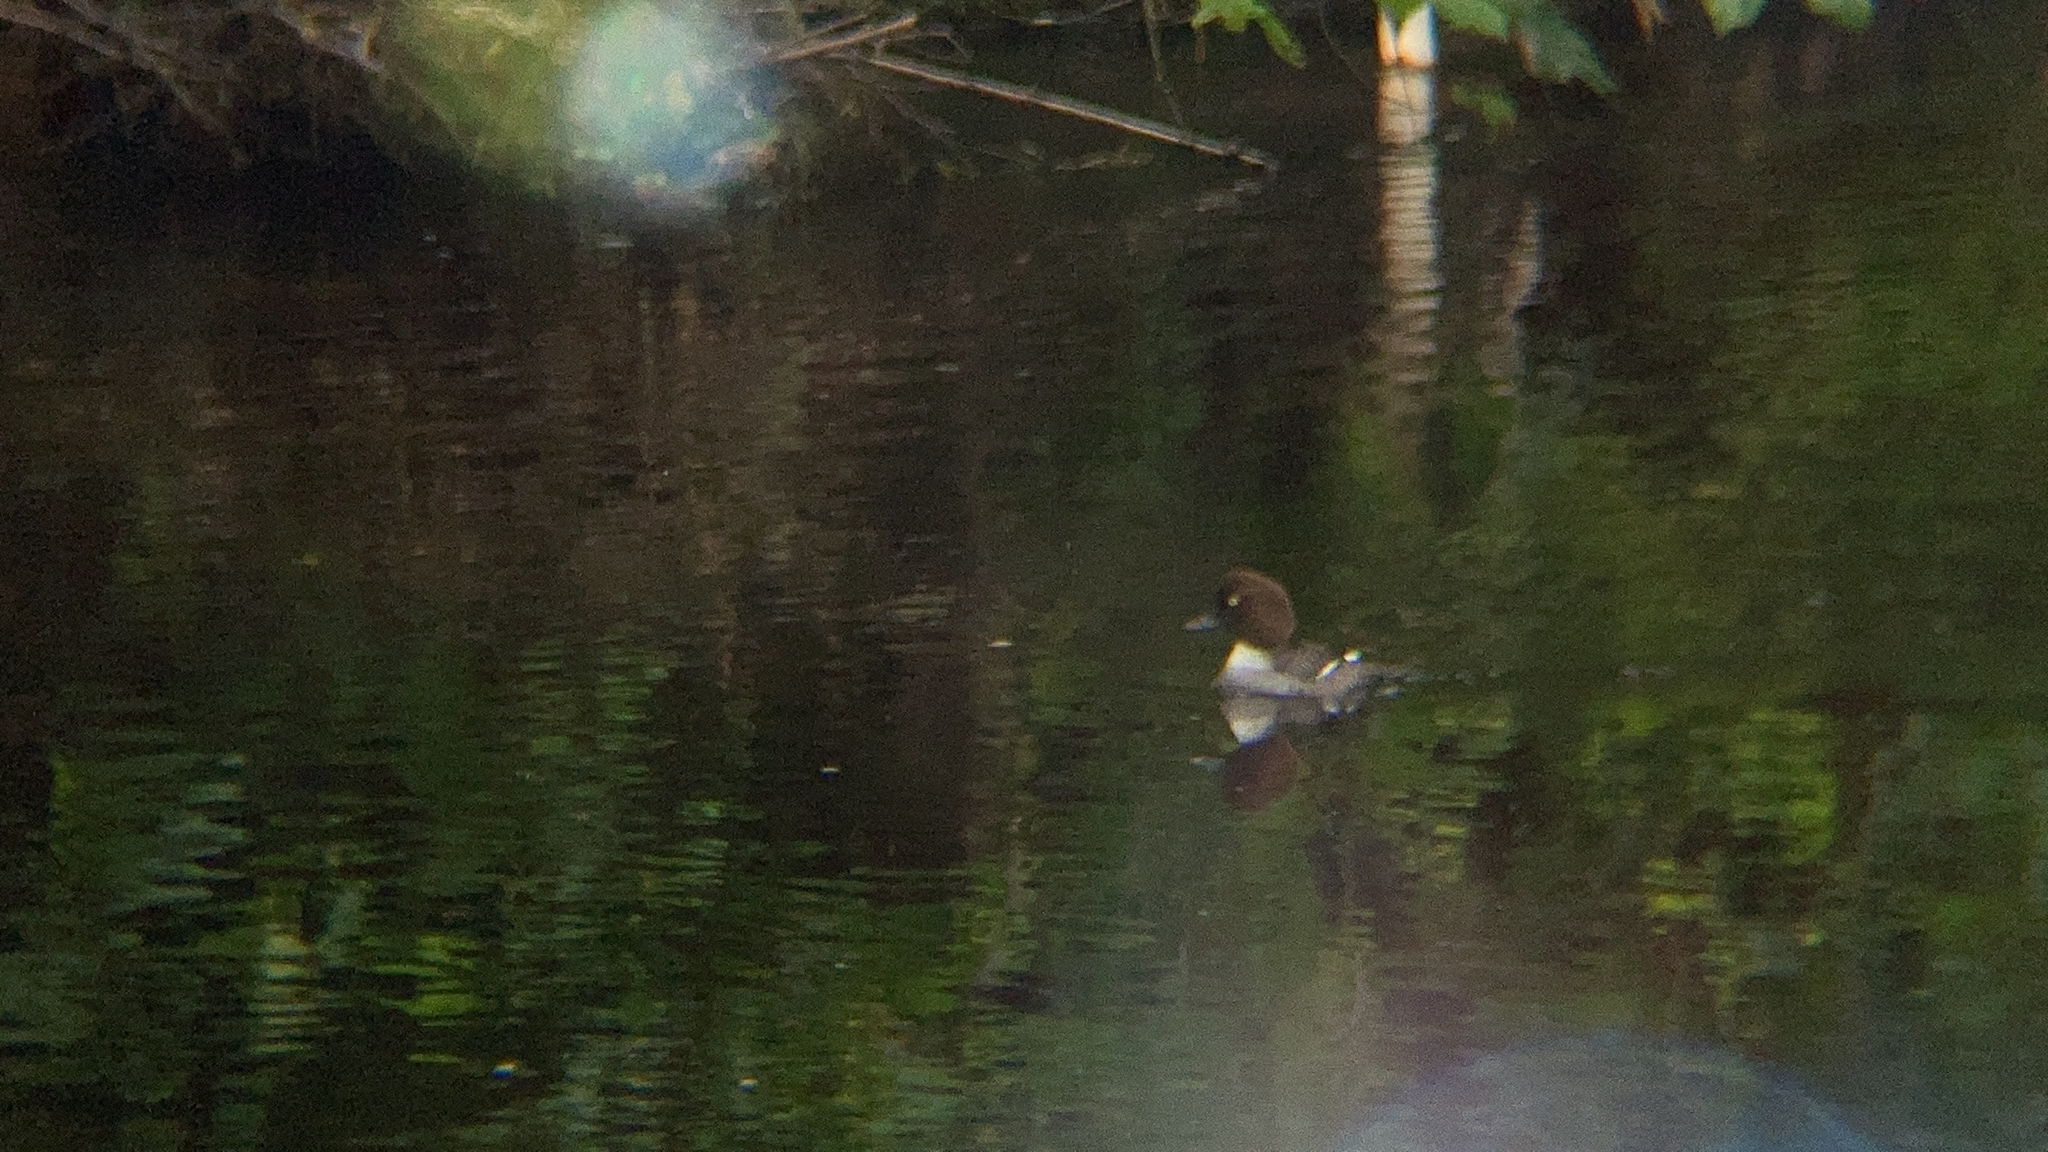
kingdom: Animalia
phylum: Chordata
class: Aves
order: Anseriformes
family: Anatidae
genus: Bucephala
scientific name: Bucephala clangula
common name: Common goldeneye
